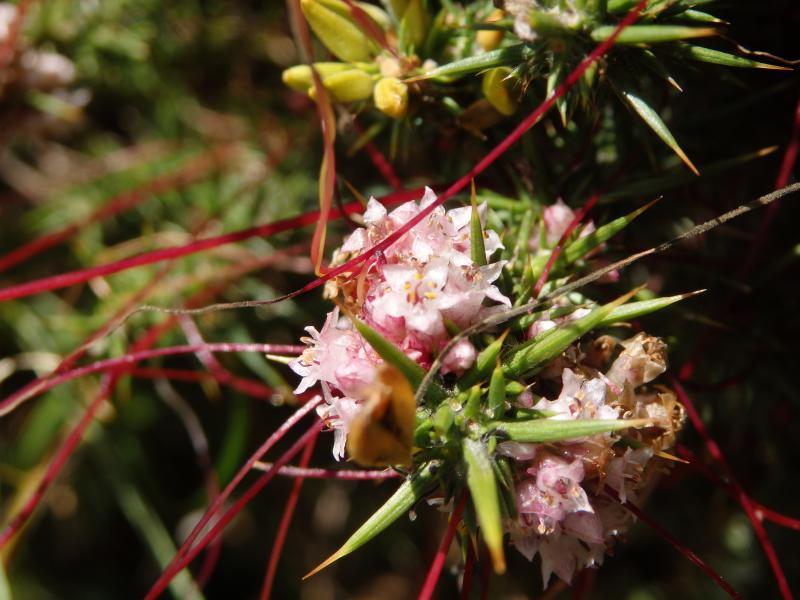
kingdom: Plantae
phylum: Tracheophyta
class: Magnoliopsida
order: Solanales
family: Convolvulaceae
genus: Cuscuta
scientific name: Cuscuta epithymum
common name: Clover dodder
